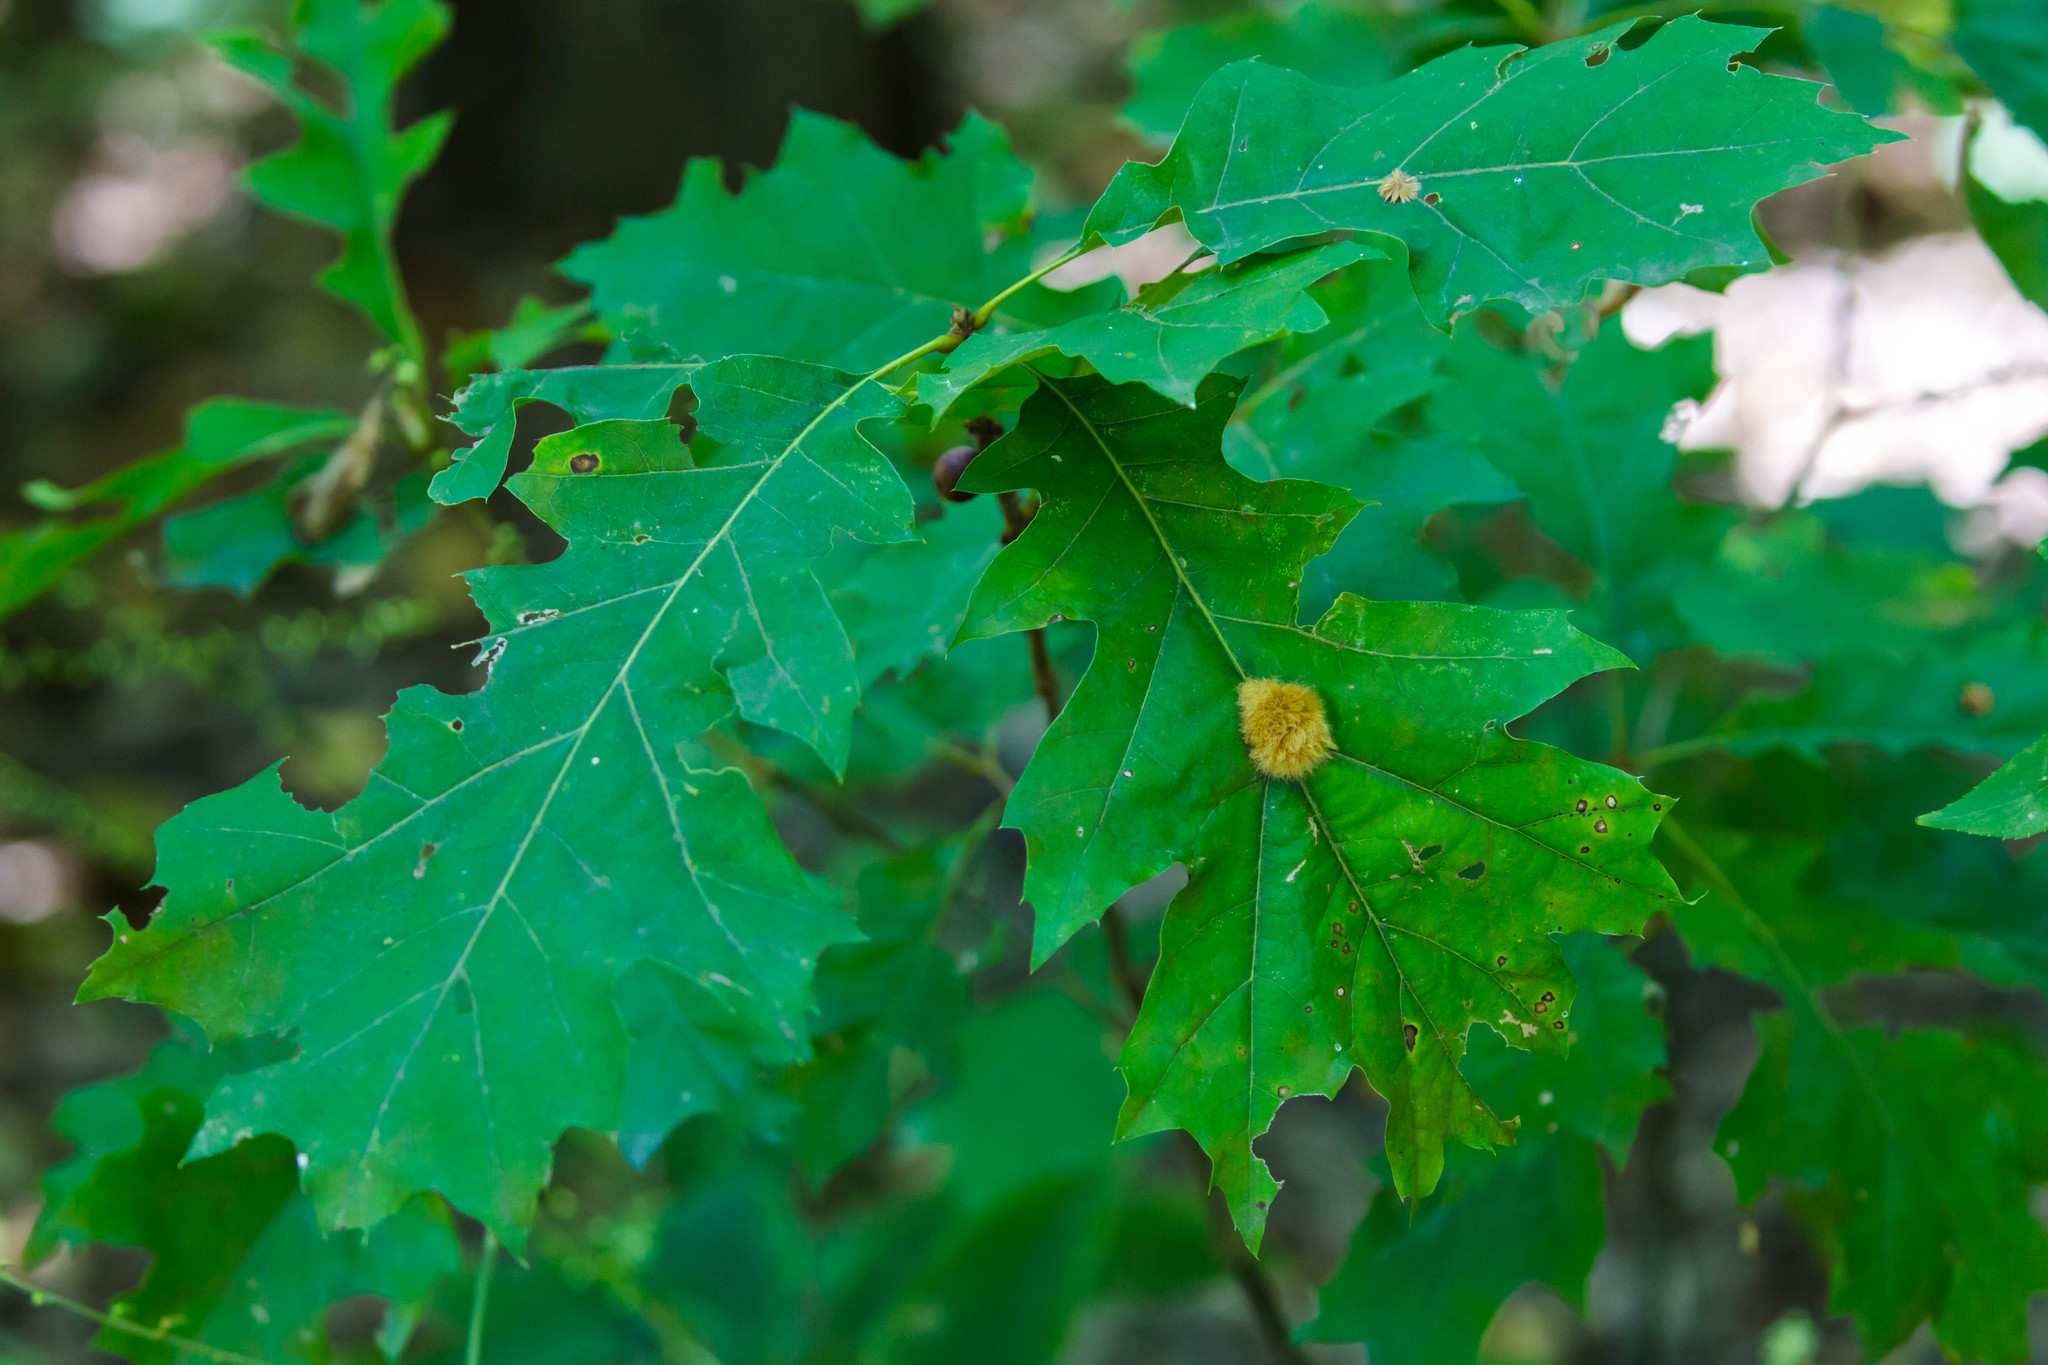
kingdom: Animalia
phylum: Arthropoda
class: Insecta
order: Hymenoptera
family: Cynipidae
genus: Callirhytis
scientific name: Callirhytis
